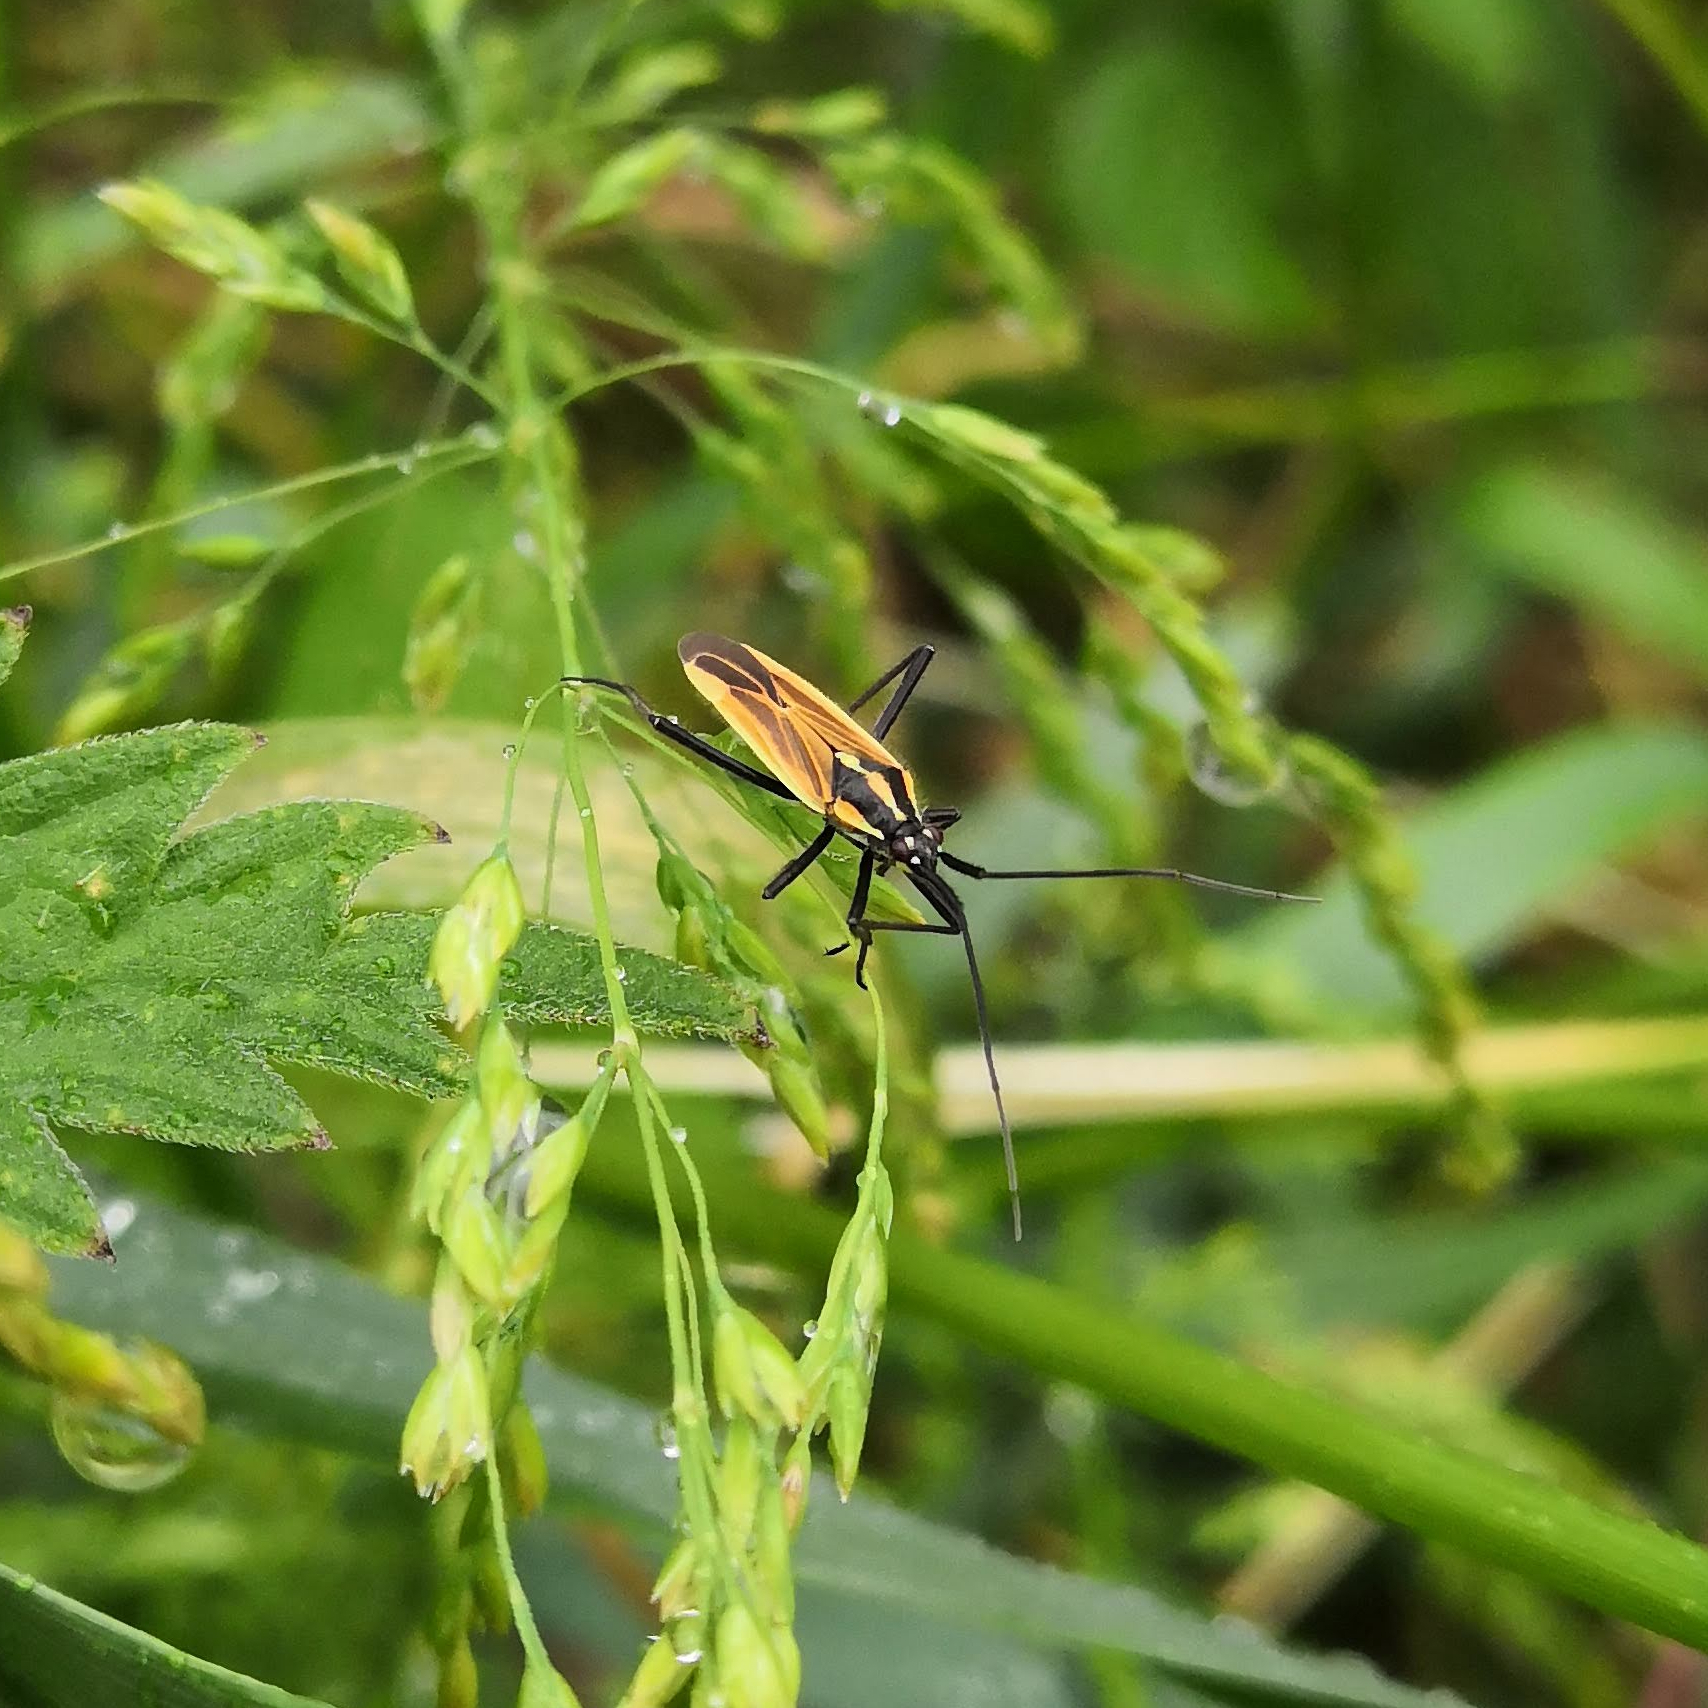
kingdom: Animalia
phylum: Arthropoda
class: Insecta
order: Hemiptera
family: Miridae
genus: Leptopterna
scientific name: Leptopterna dolabrata
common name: Meadow plant bug
